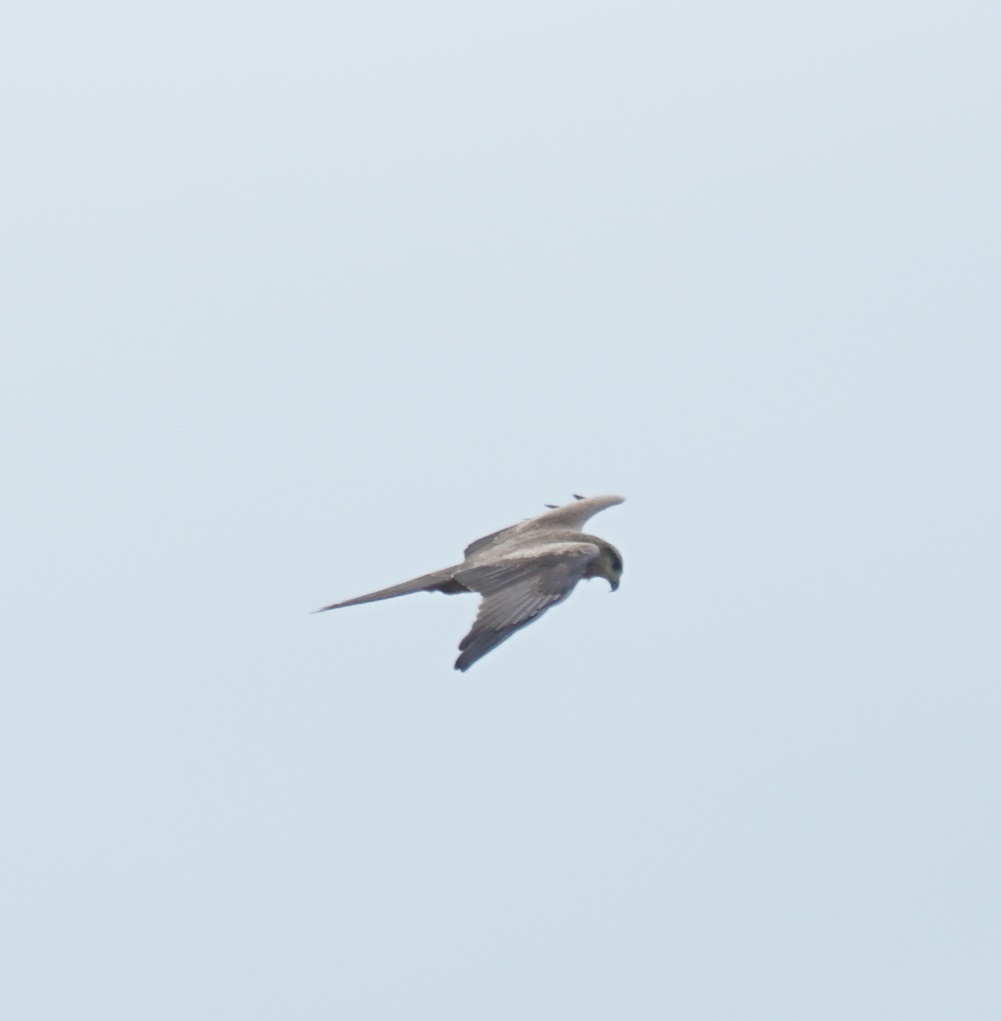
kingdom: Animalia
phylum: Chordata
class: Aves
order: Accipitriformes
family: Accipitridae
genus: Milvus
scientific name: Milvus migrans
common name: Black kite
